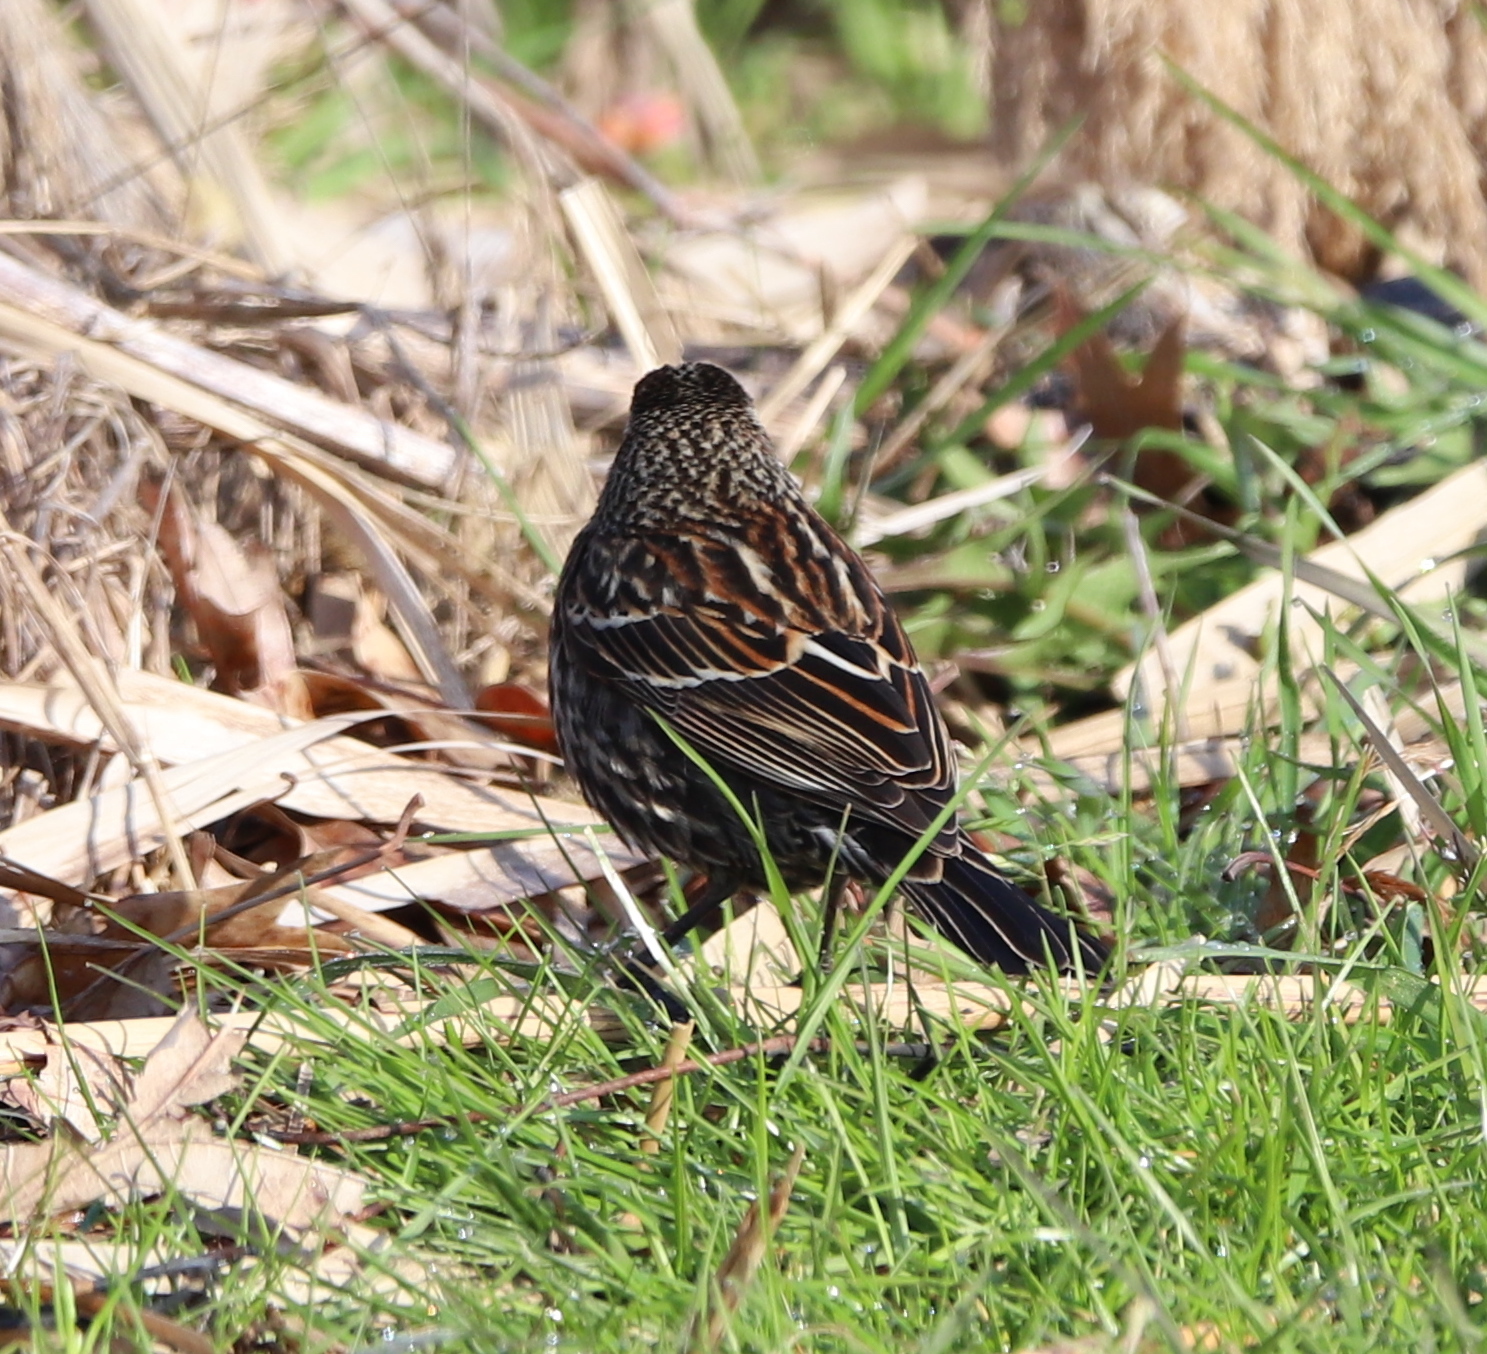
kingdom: Animalia
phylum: Chordata
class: Aves
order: Passeriformes
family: Icteridae
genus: Agelaius
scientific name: Agelaius phoeniceus
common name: Red-winged blackbird
